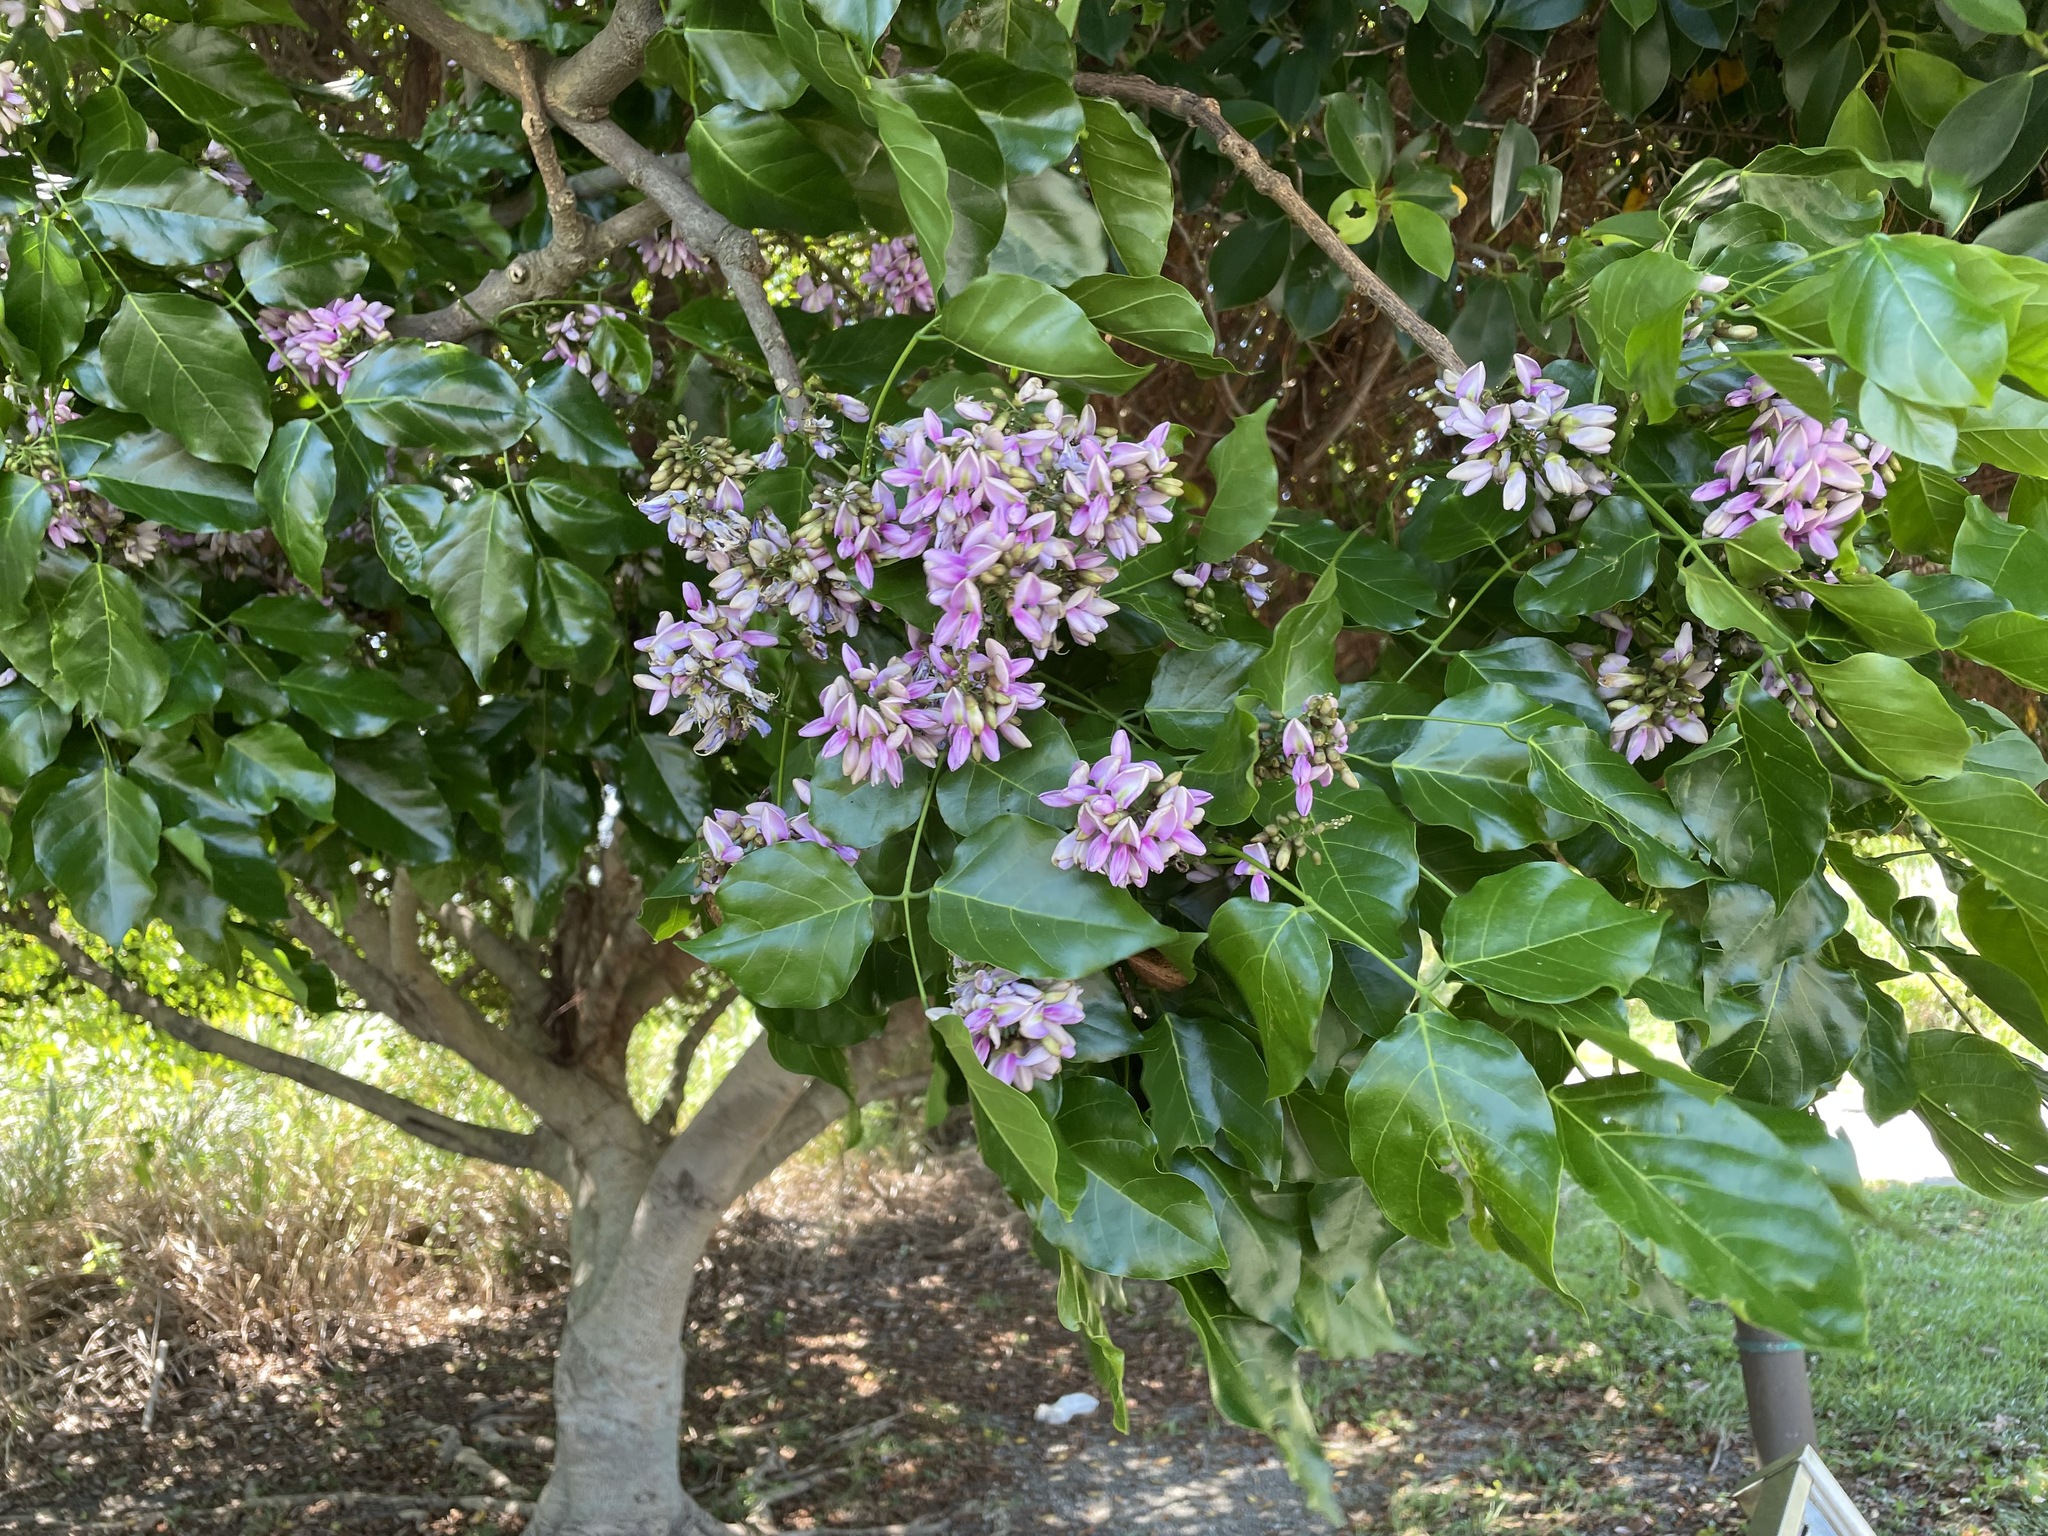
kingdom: Plantae
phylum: Tracheophyta
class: Magnoliopsida
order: Fabales
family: Fabaceae
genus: Pongamia
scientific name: Pongamia pinnata
